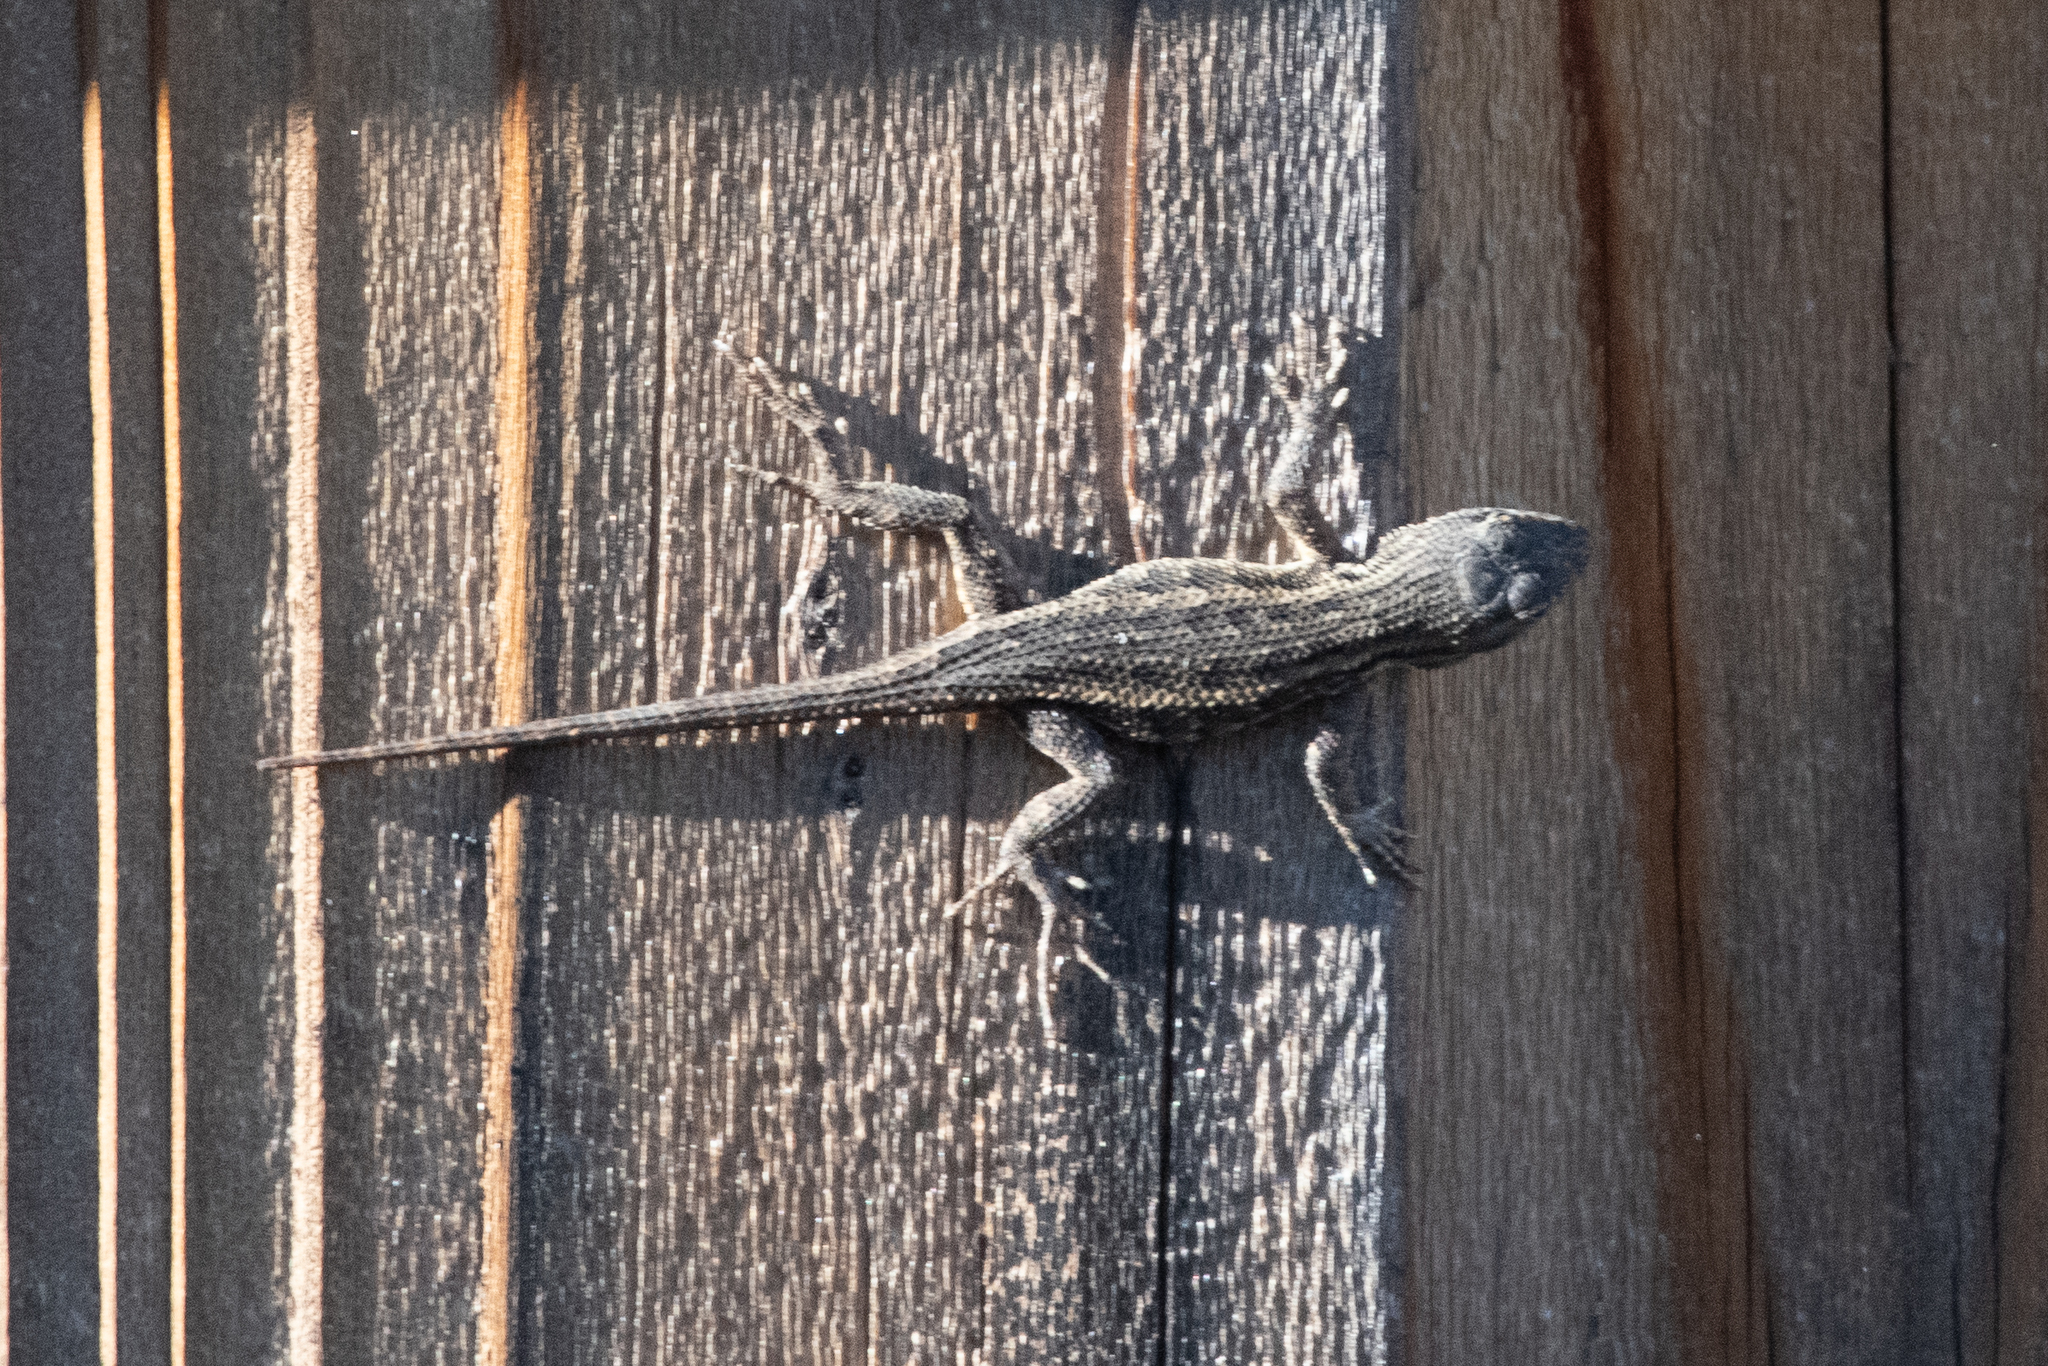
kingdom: Animalia
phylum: Chordata
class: Squamata
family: Phrynosomatidae
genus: Sceloporus
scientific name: Sceloporus occidentalis
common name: Western fence lizard
